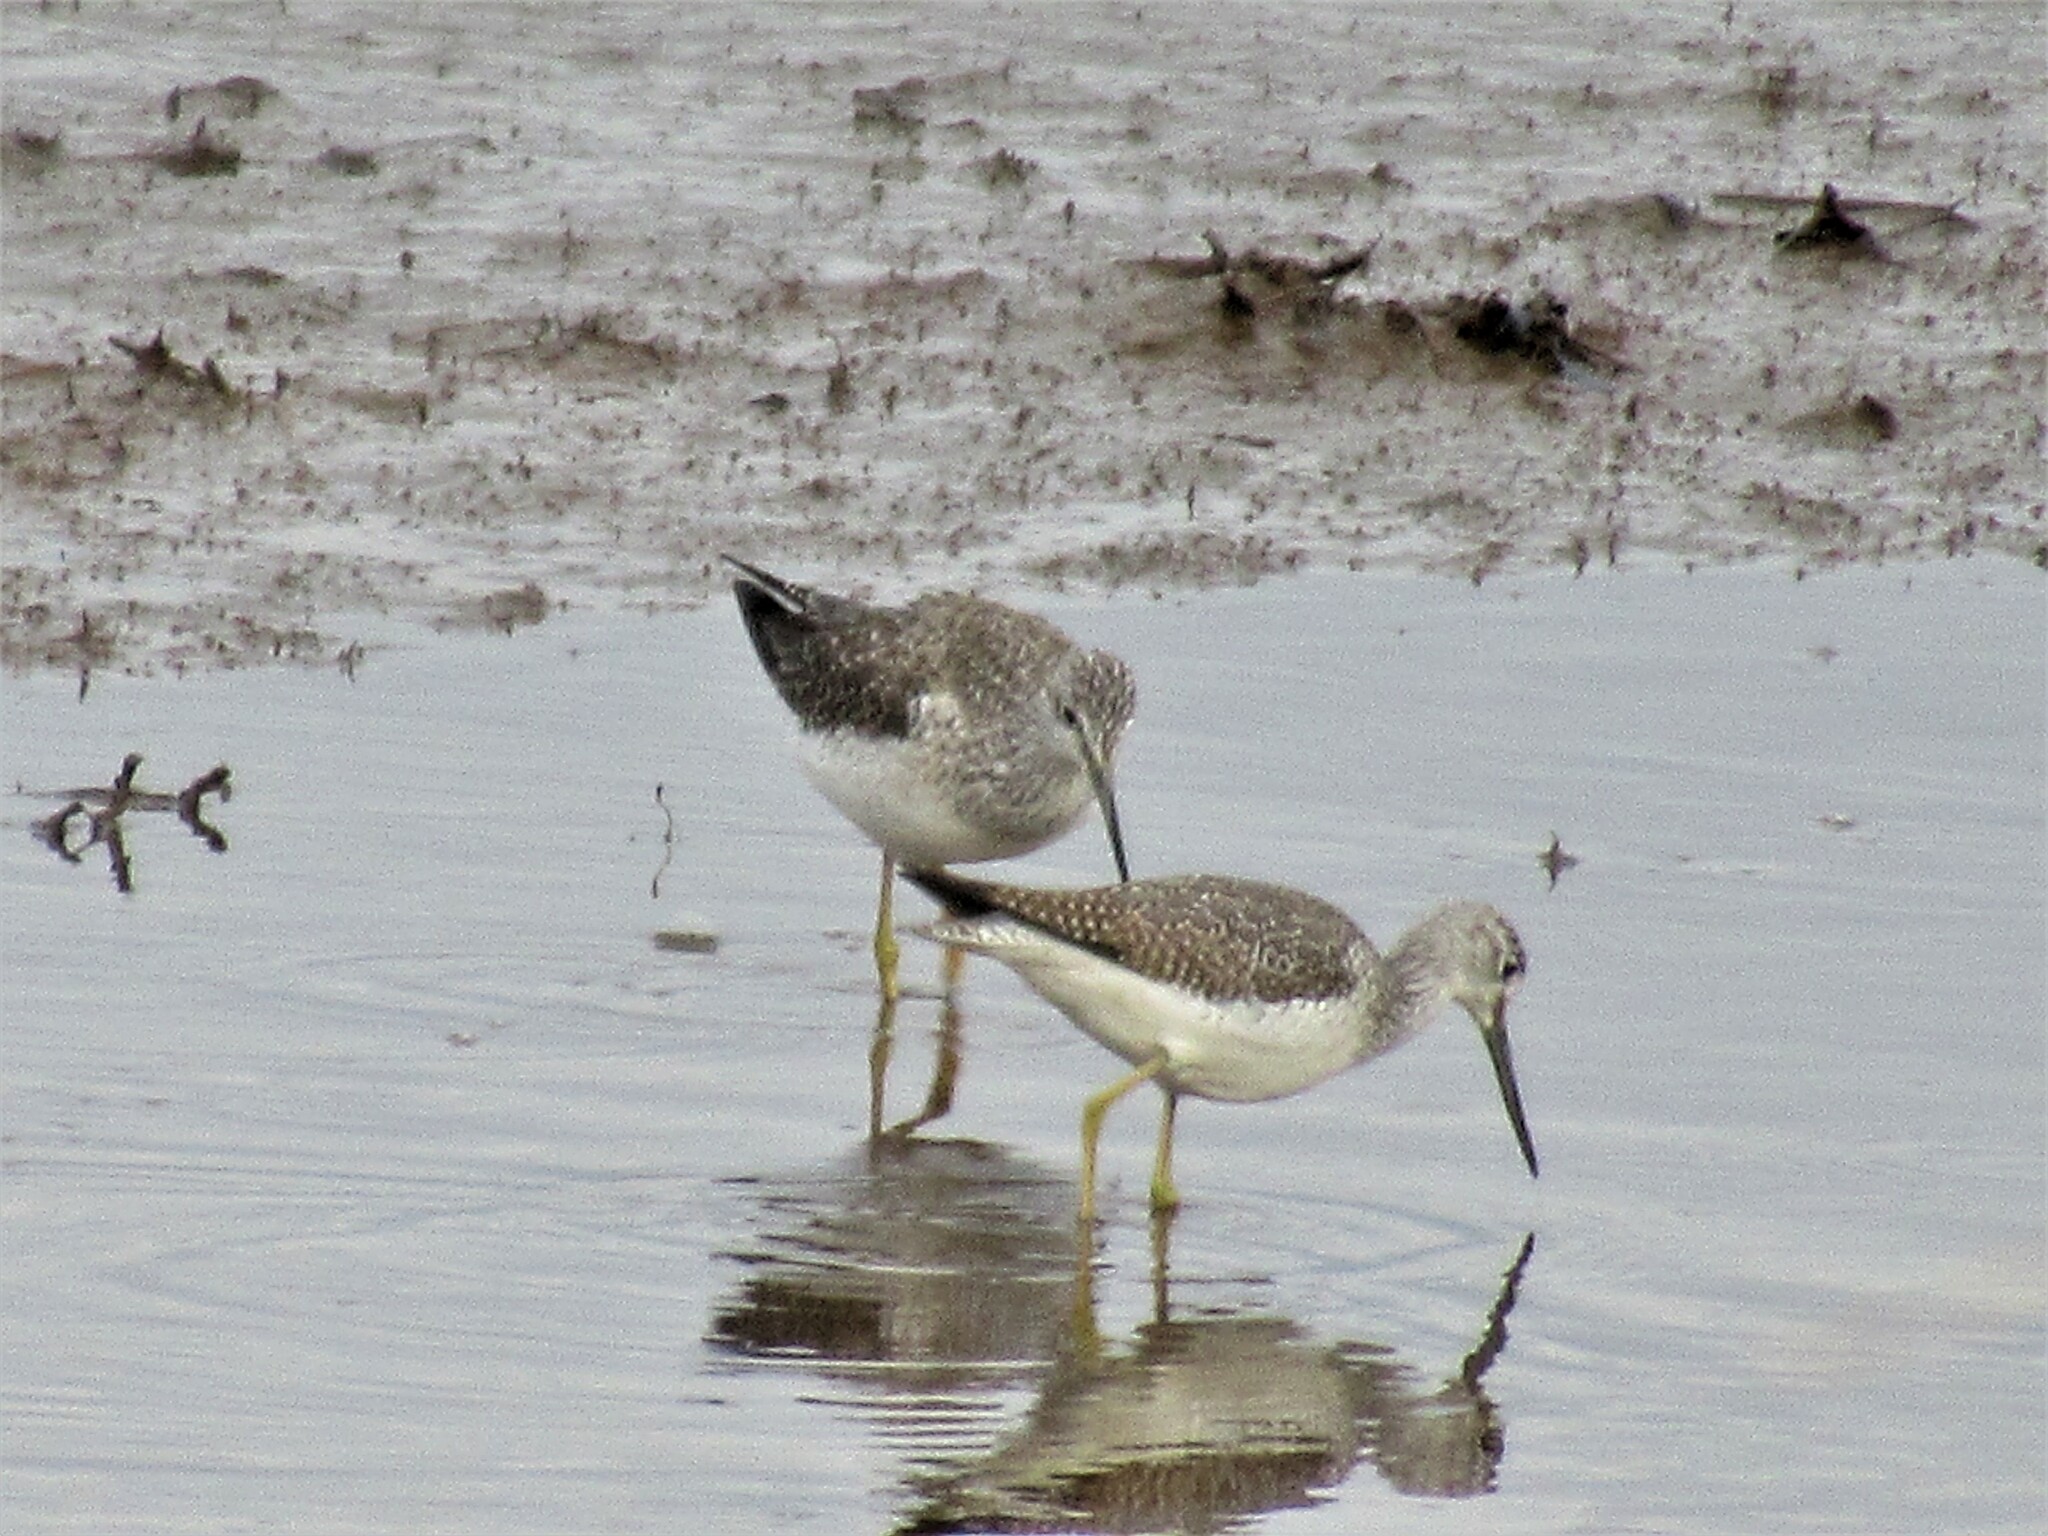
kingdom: Animalia
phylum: Chordata
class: Aves
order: Charadriiformes
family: Scolopacidae
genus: Tringa
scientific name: Tringa melanoleuca
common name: Greater yellowlegs
